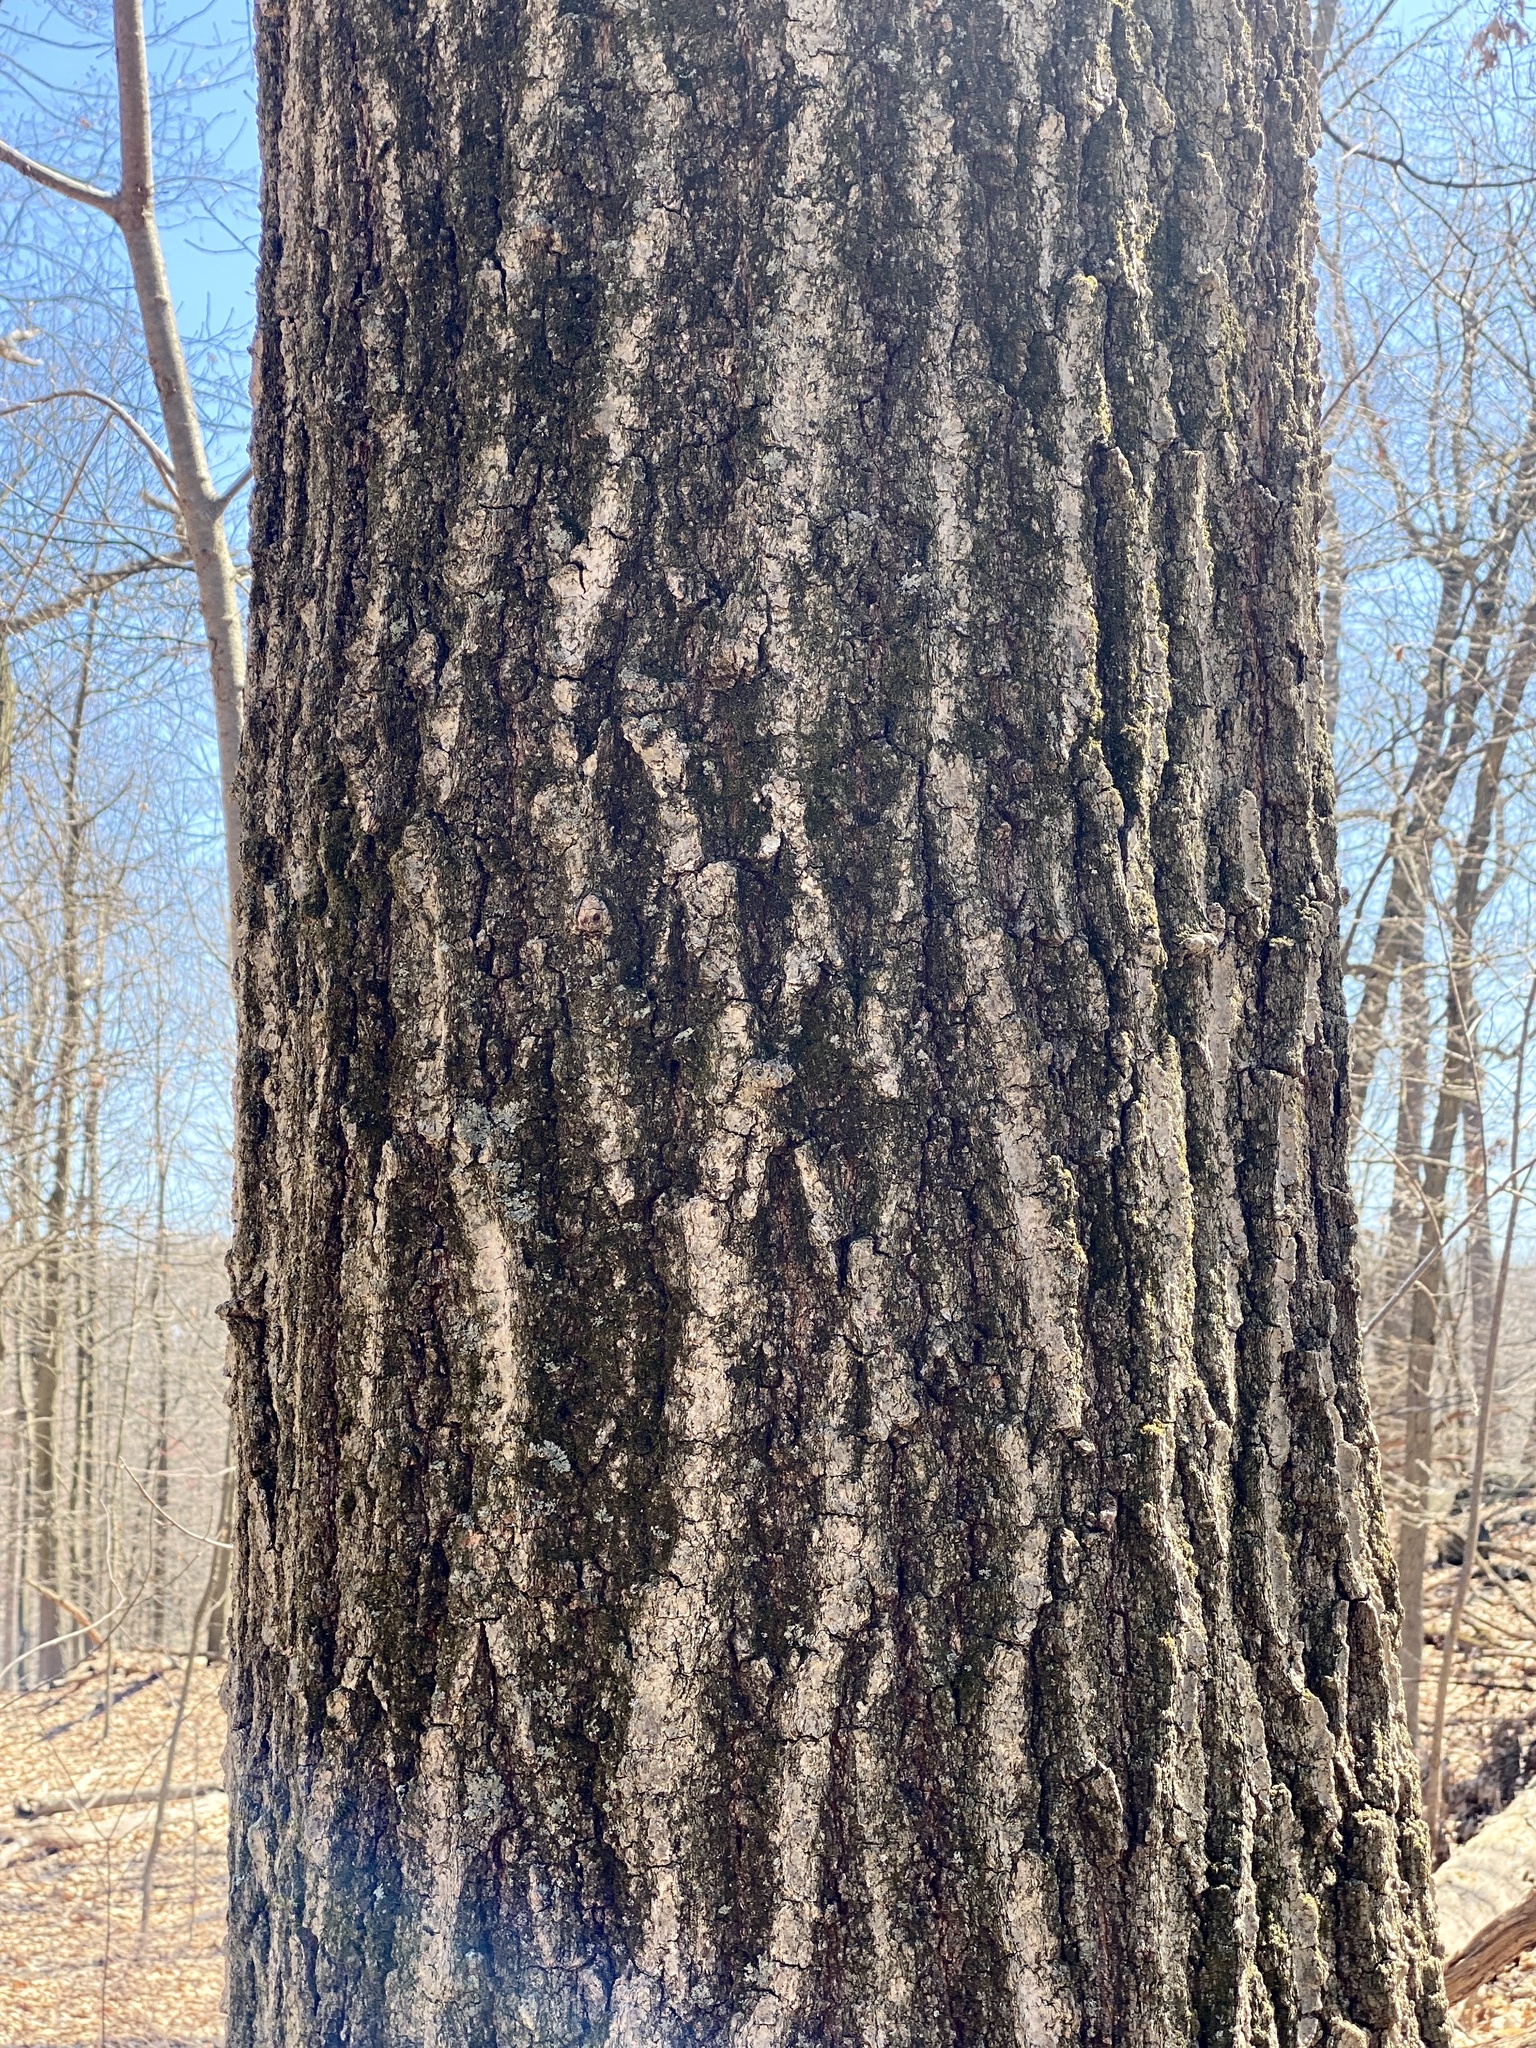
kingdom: Plantae
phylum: Tracheophyta
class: Magnoliopsida
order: Fagales
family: Fagaceae
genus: Quercus
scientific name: Quercus rubra
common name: Red oak
